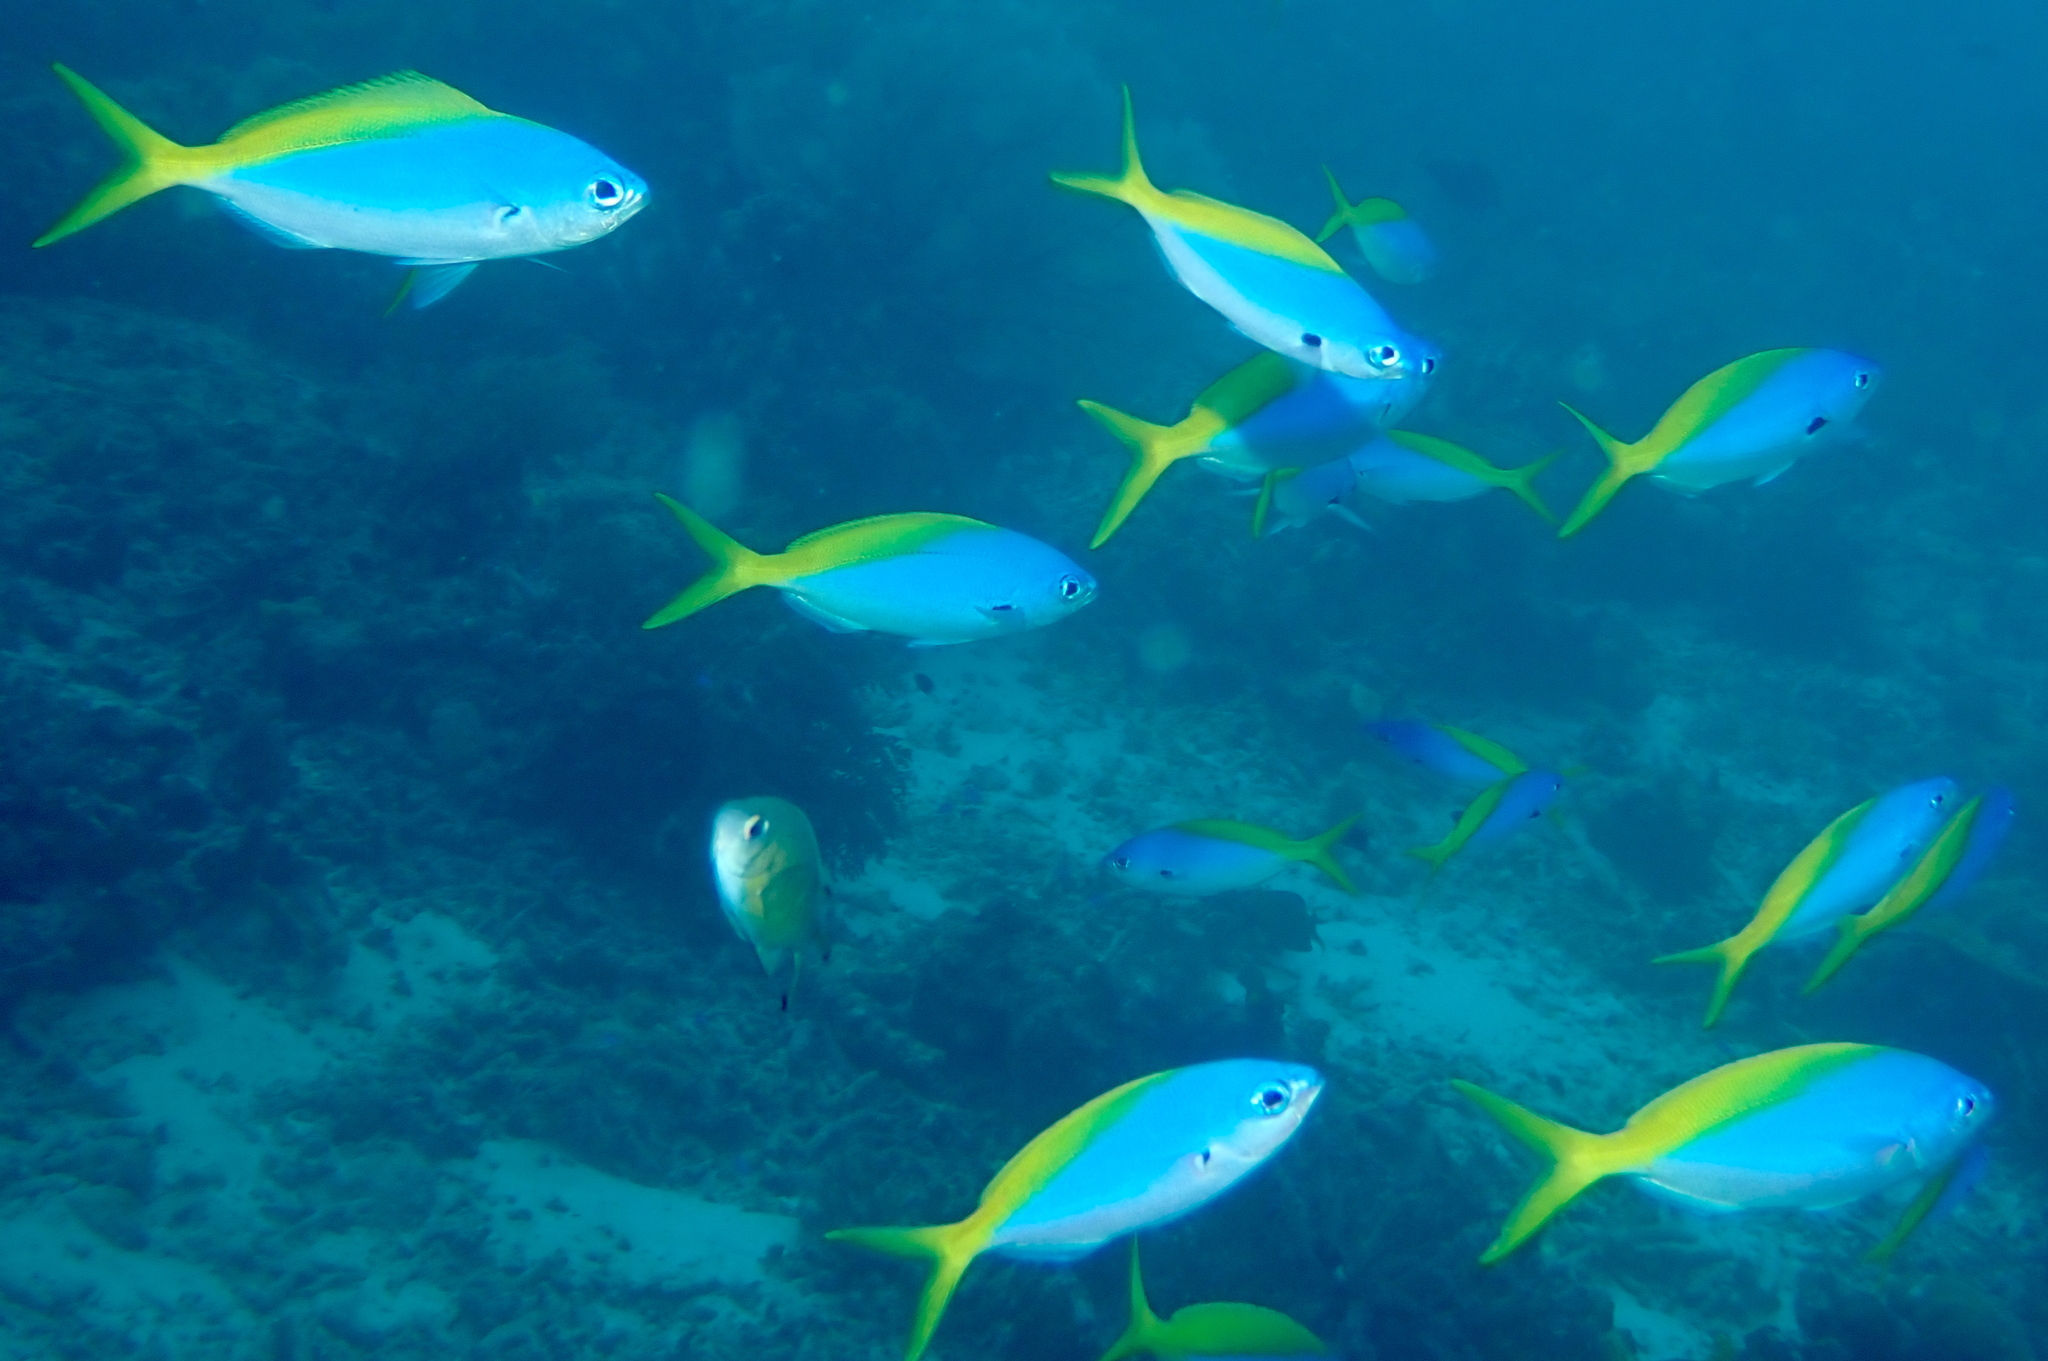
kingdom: Animalia
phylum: Chordata
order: Perciformes
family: Caesionidae
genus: Caesio
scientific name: Caesio teres
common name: Yellow and blueback fusilier
